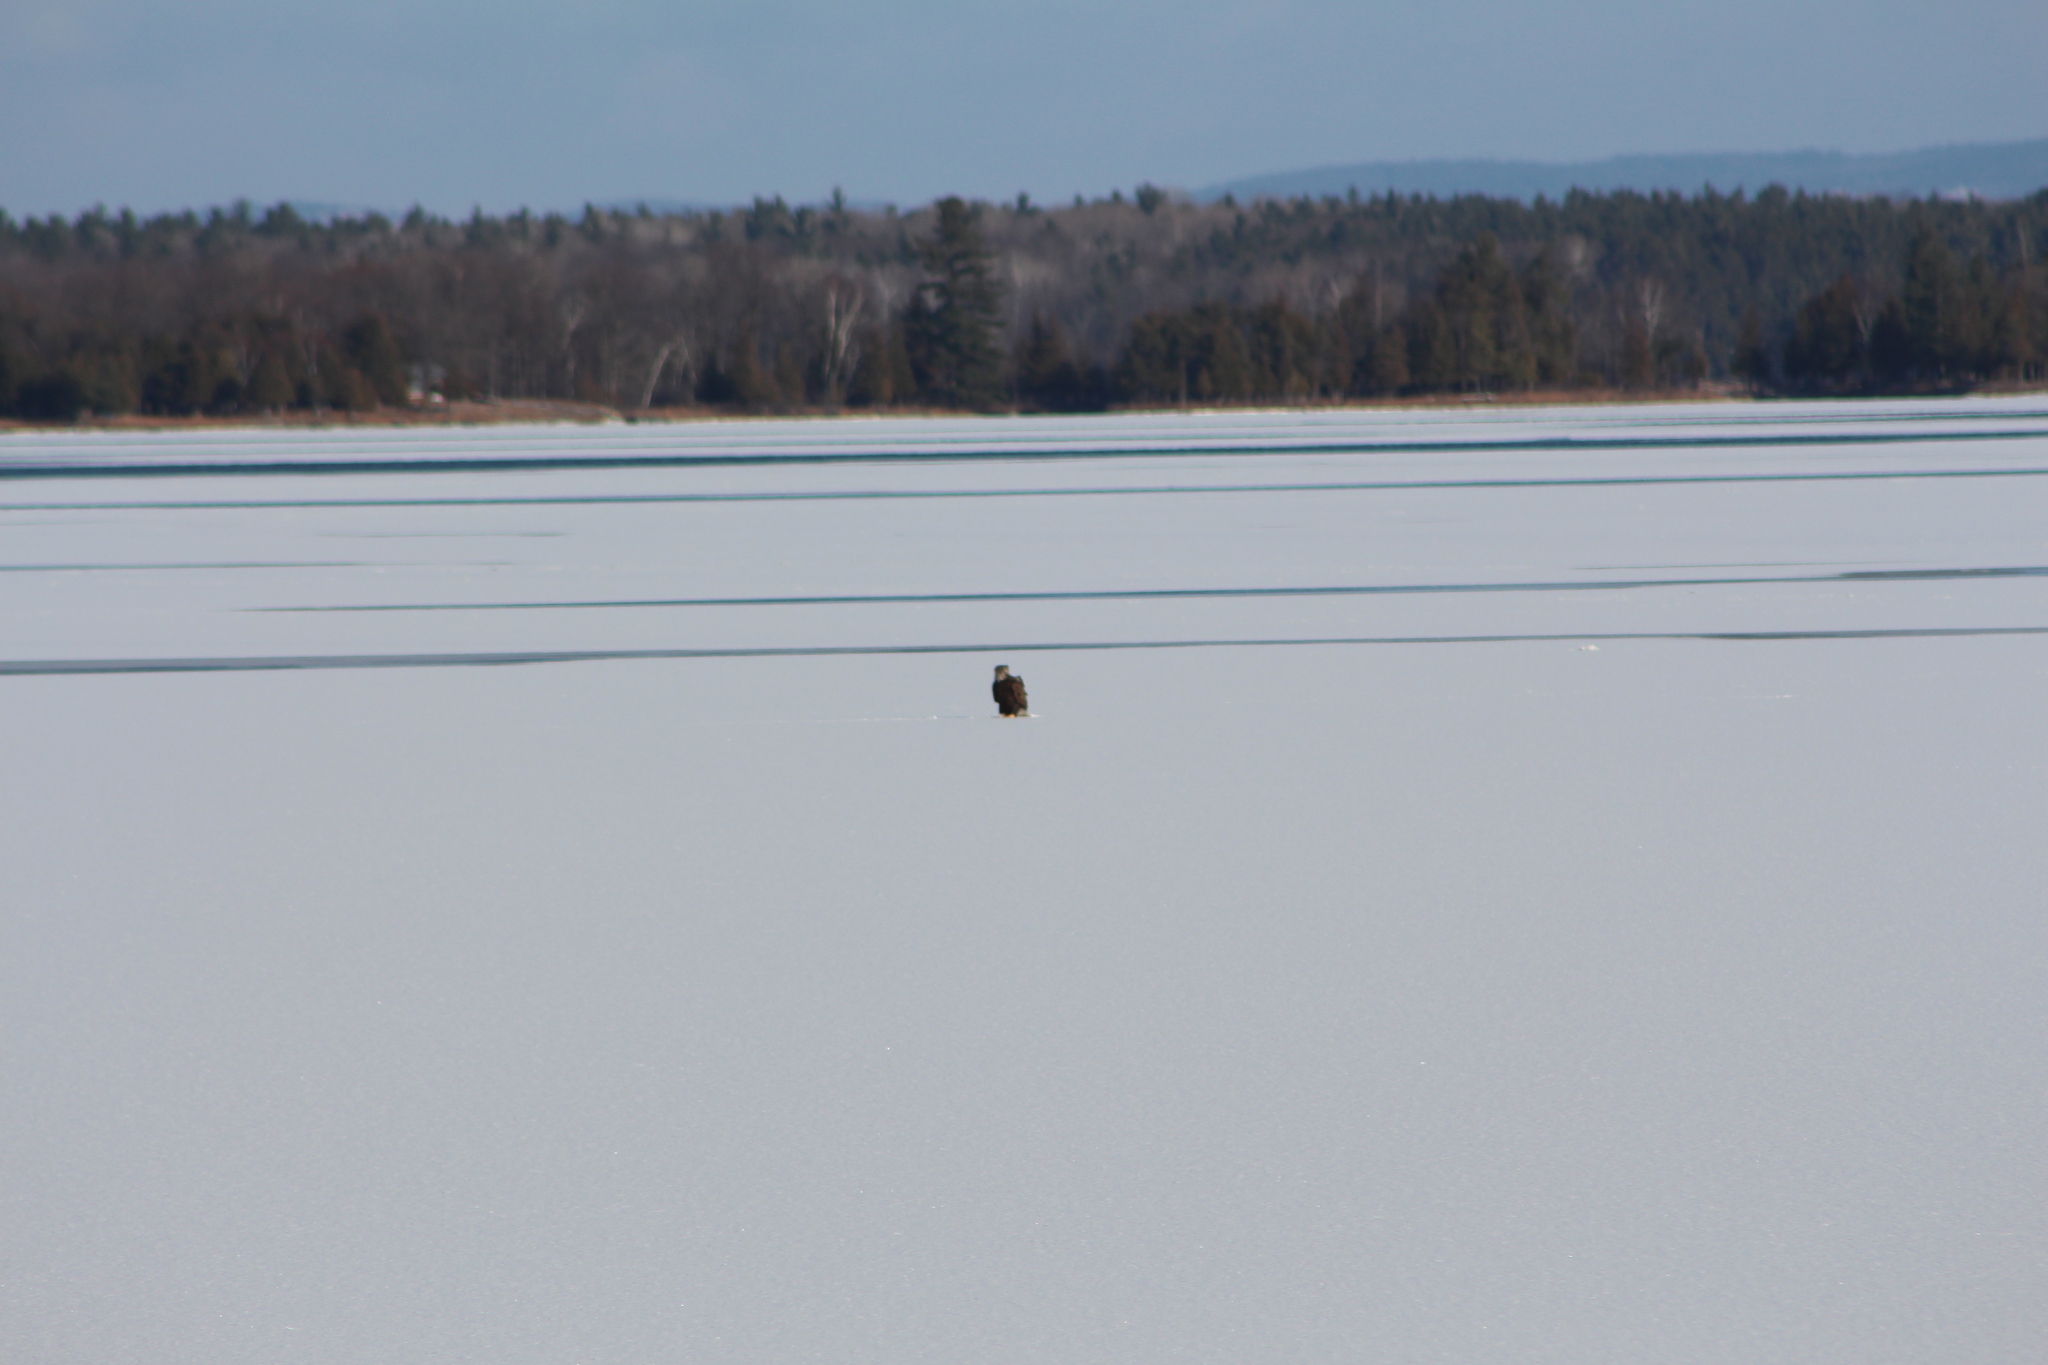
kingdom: Animalia
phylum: Chordata
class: Aves
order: Accipitriformes
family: Accipitridae
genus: Haliaeetus
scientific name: Haliaeetus leucocephalus
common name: Bald eagle
